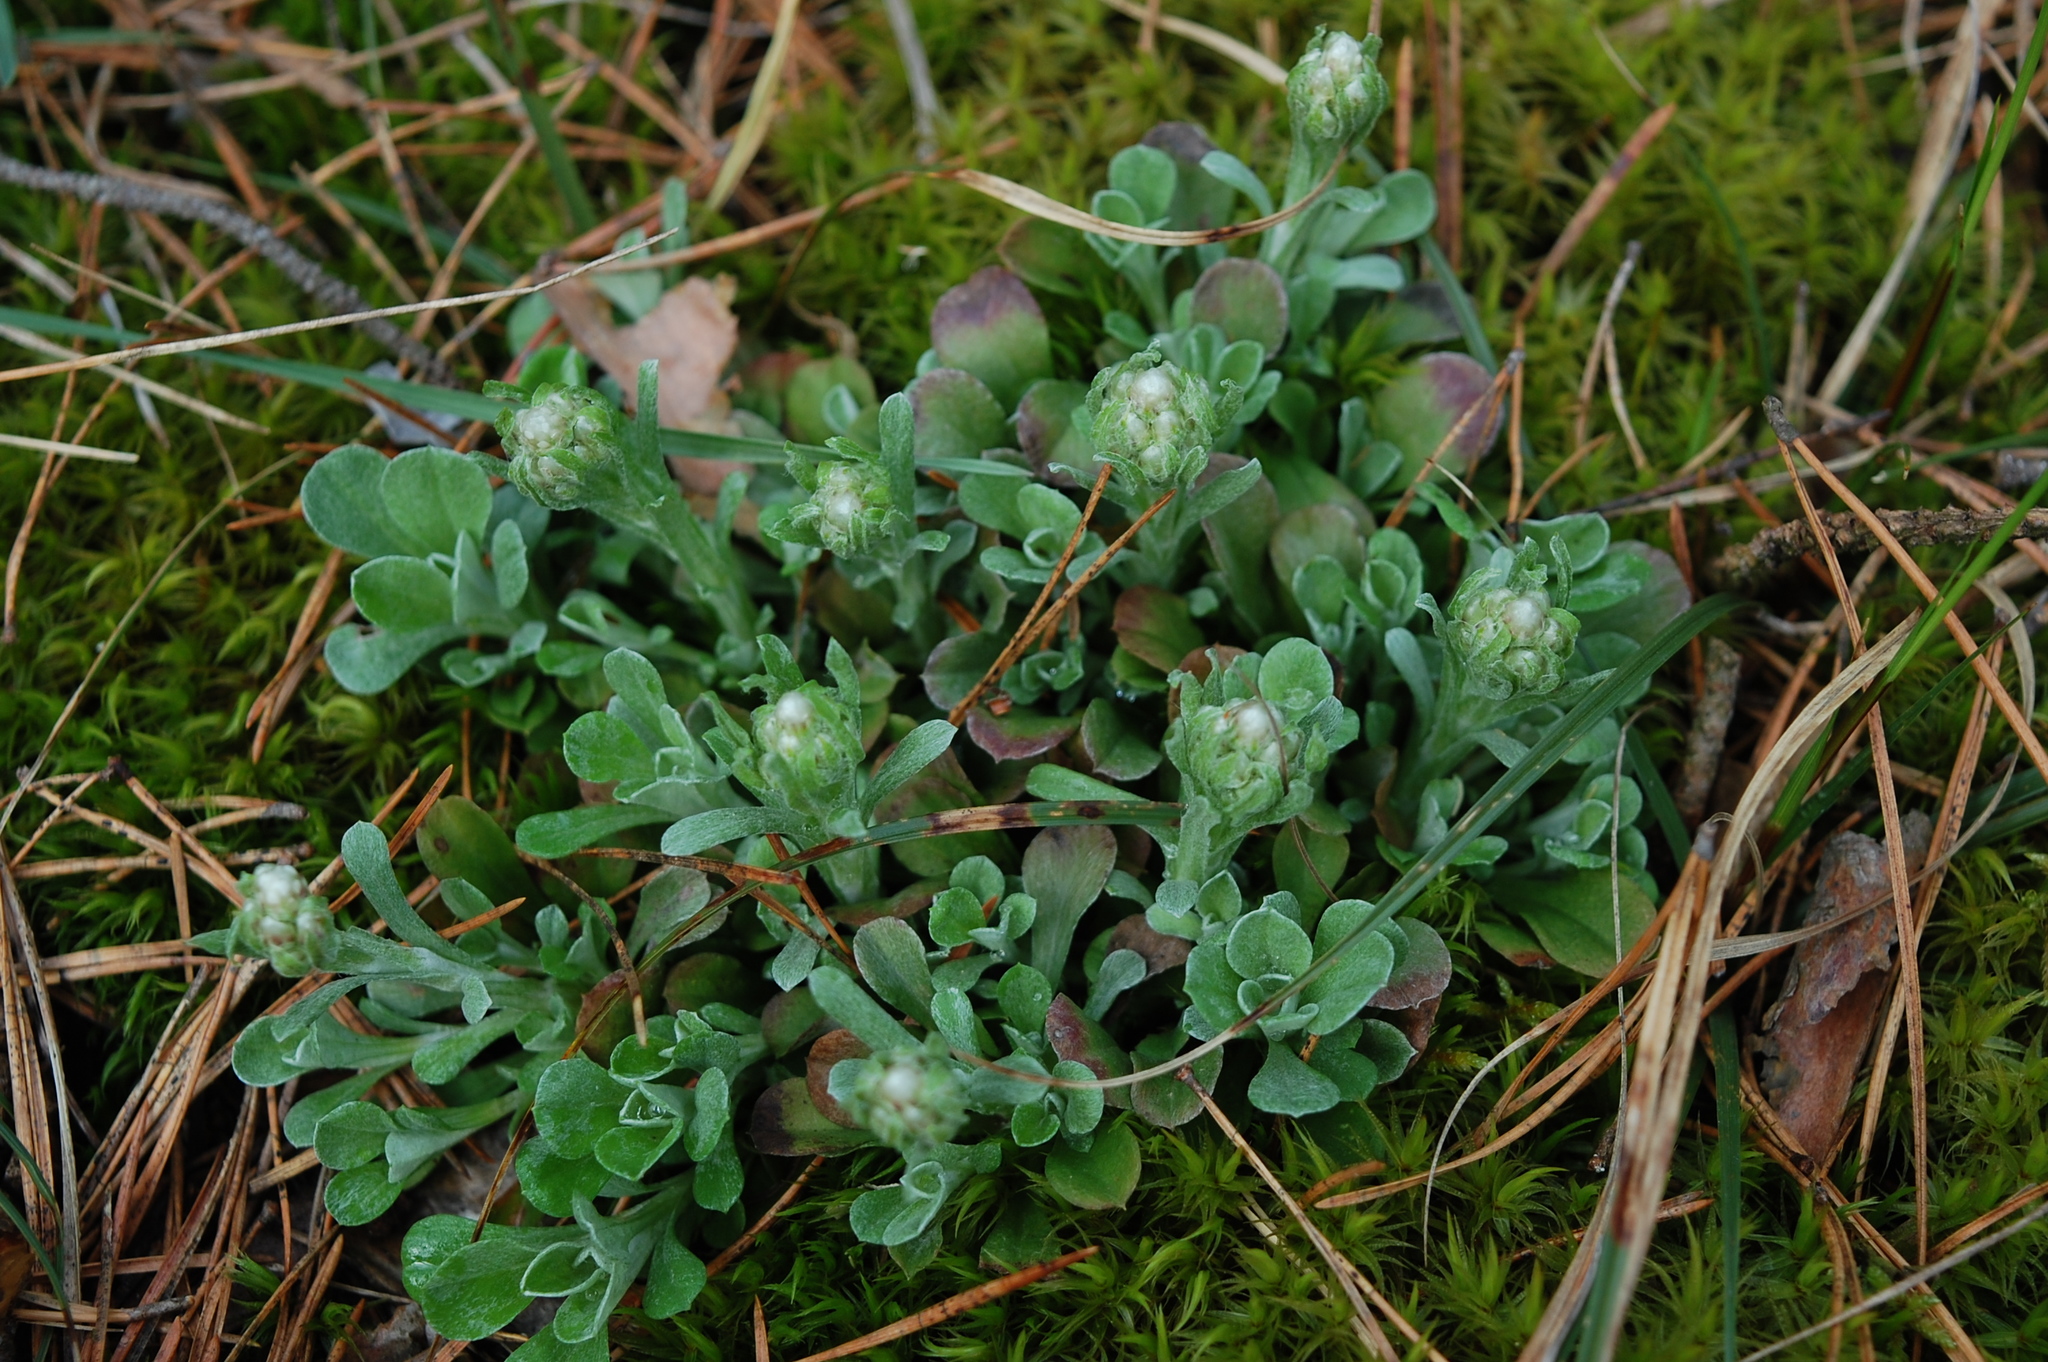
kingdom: Plantae
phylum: Tracheophyta
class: Magnoliopsida
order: Asterales
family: Asteraceae
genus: Antennaria
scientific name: Antennaria dioica
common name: Mountain everlasting
